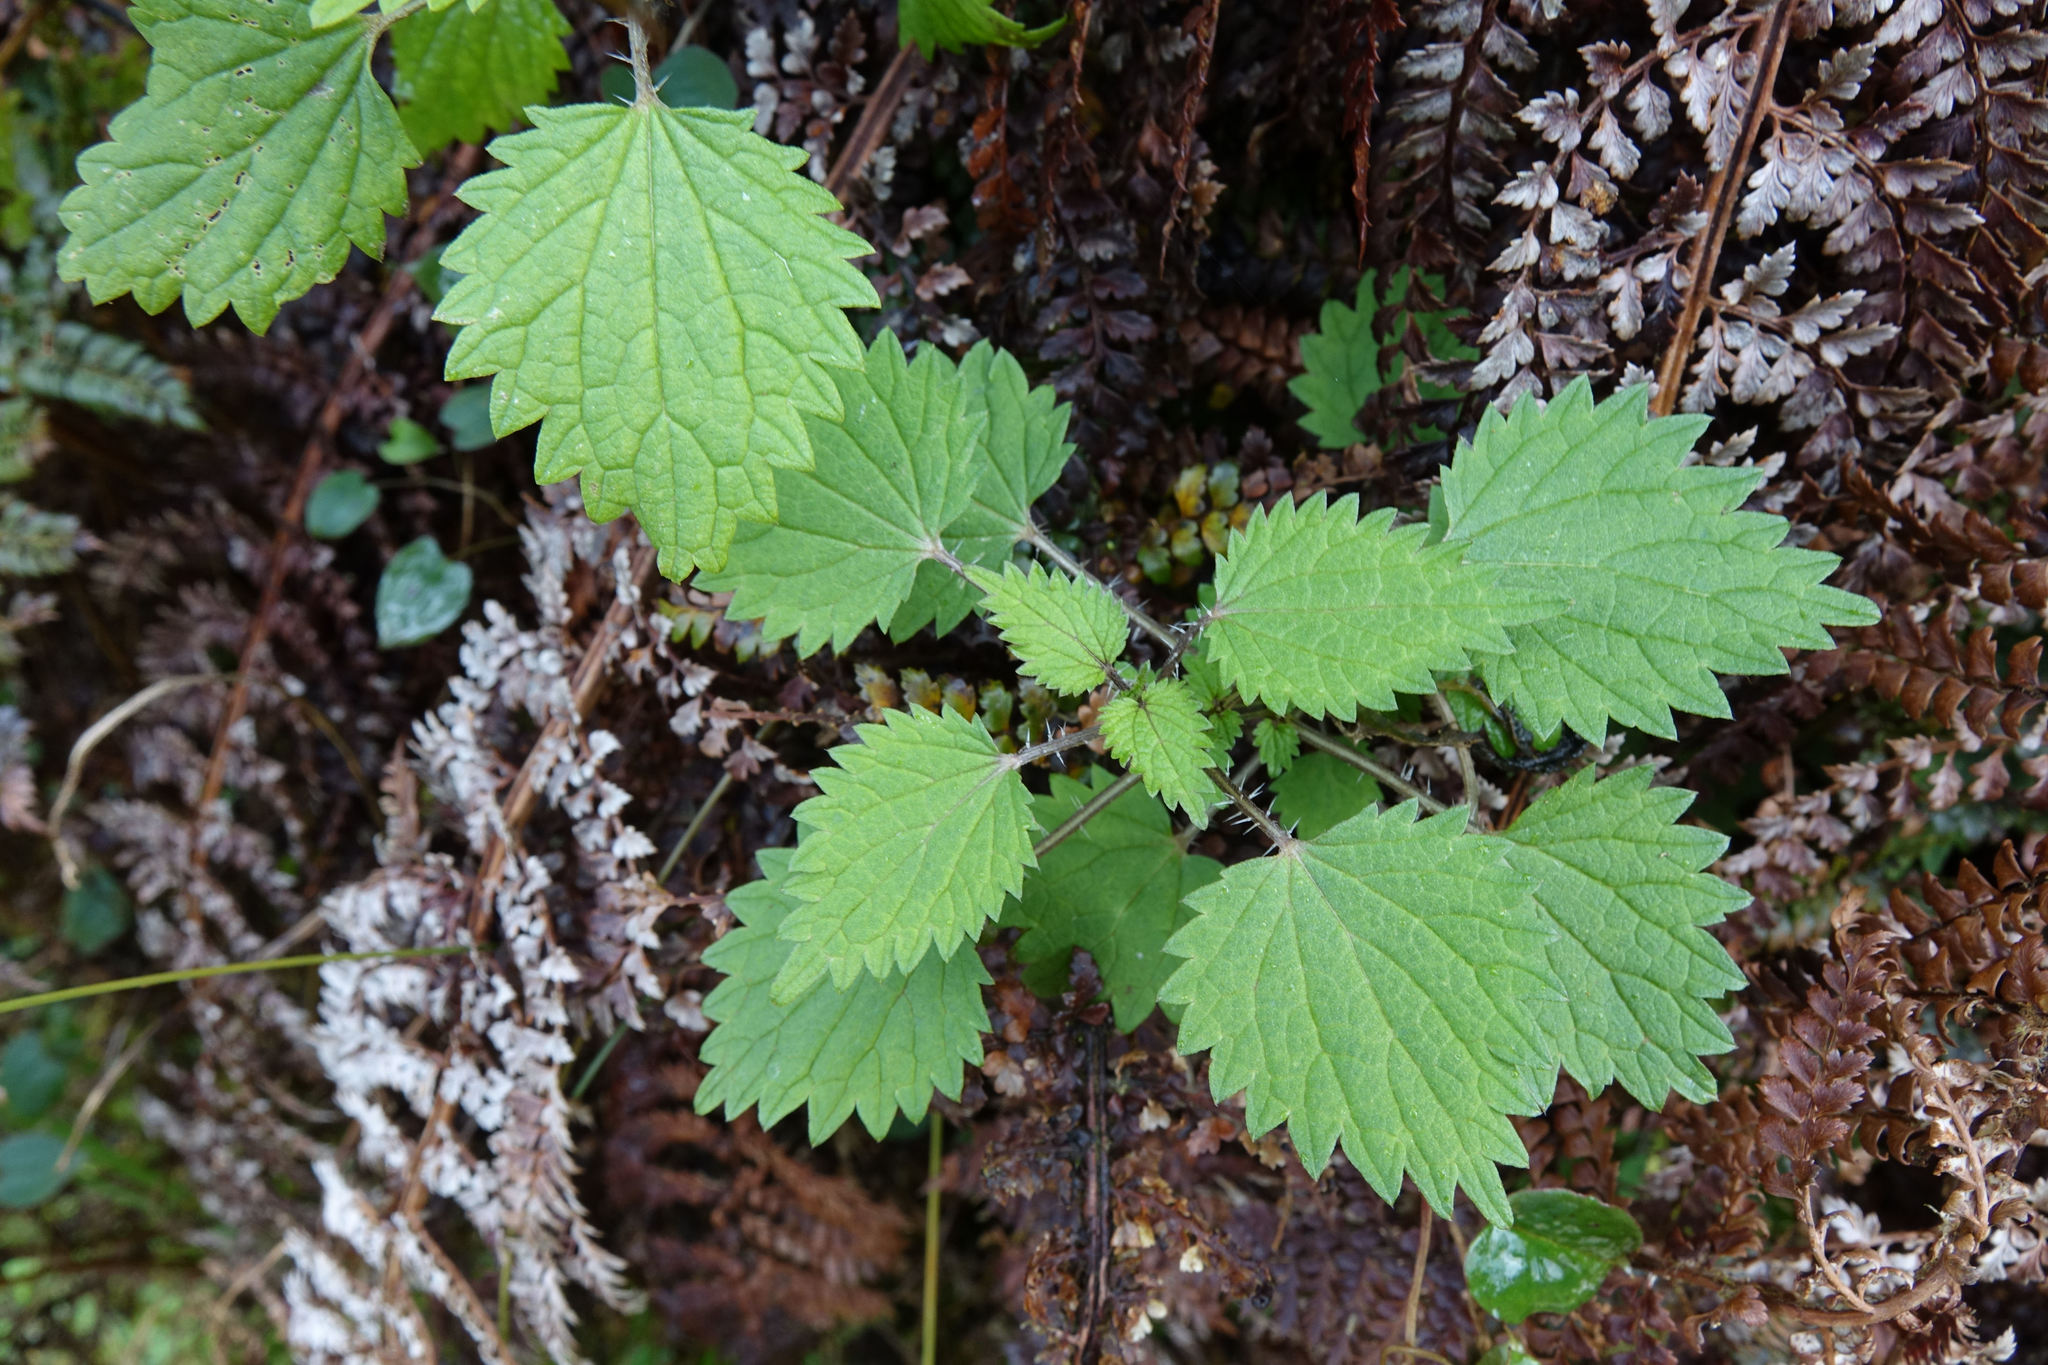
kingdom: Plantae
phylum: Tracheophyta
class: Magnoliopsida
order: Rosales
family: Urticaceae
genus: Urtica
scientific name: Urtica sykesii
